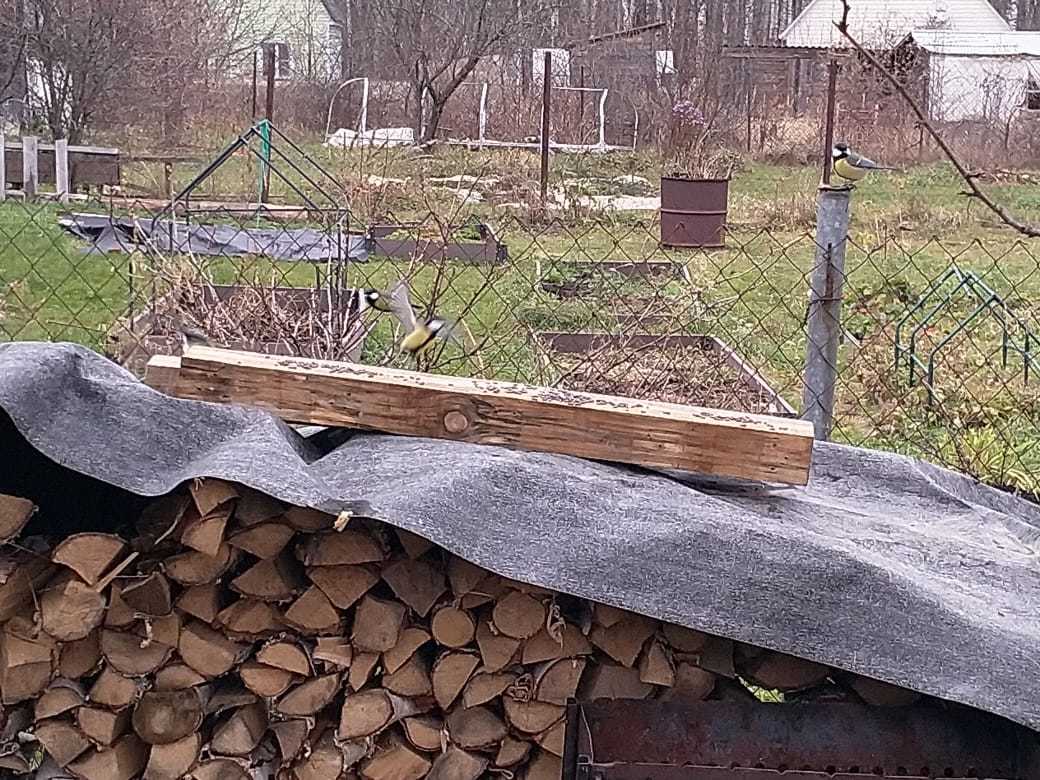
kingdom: Animalia
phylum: Chordata
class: Aves
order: Passeriformes
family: Paridae
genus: Parus
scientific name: Parus major
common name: Great tit
